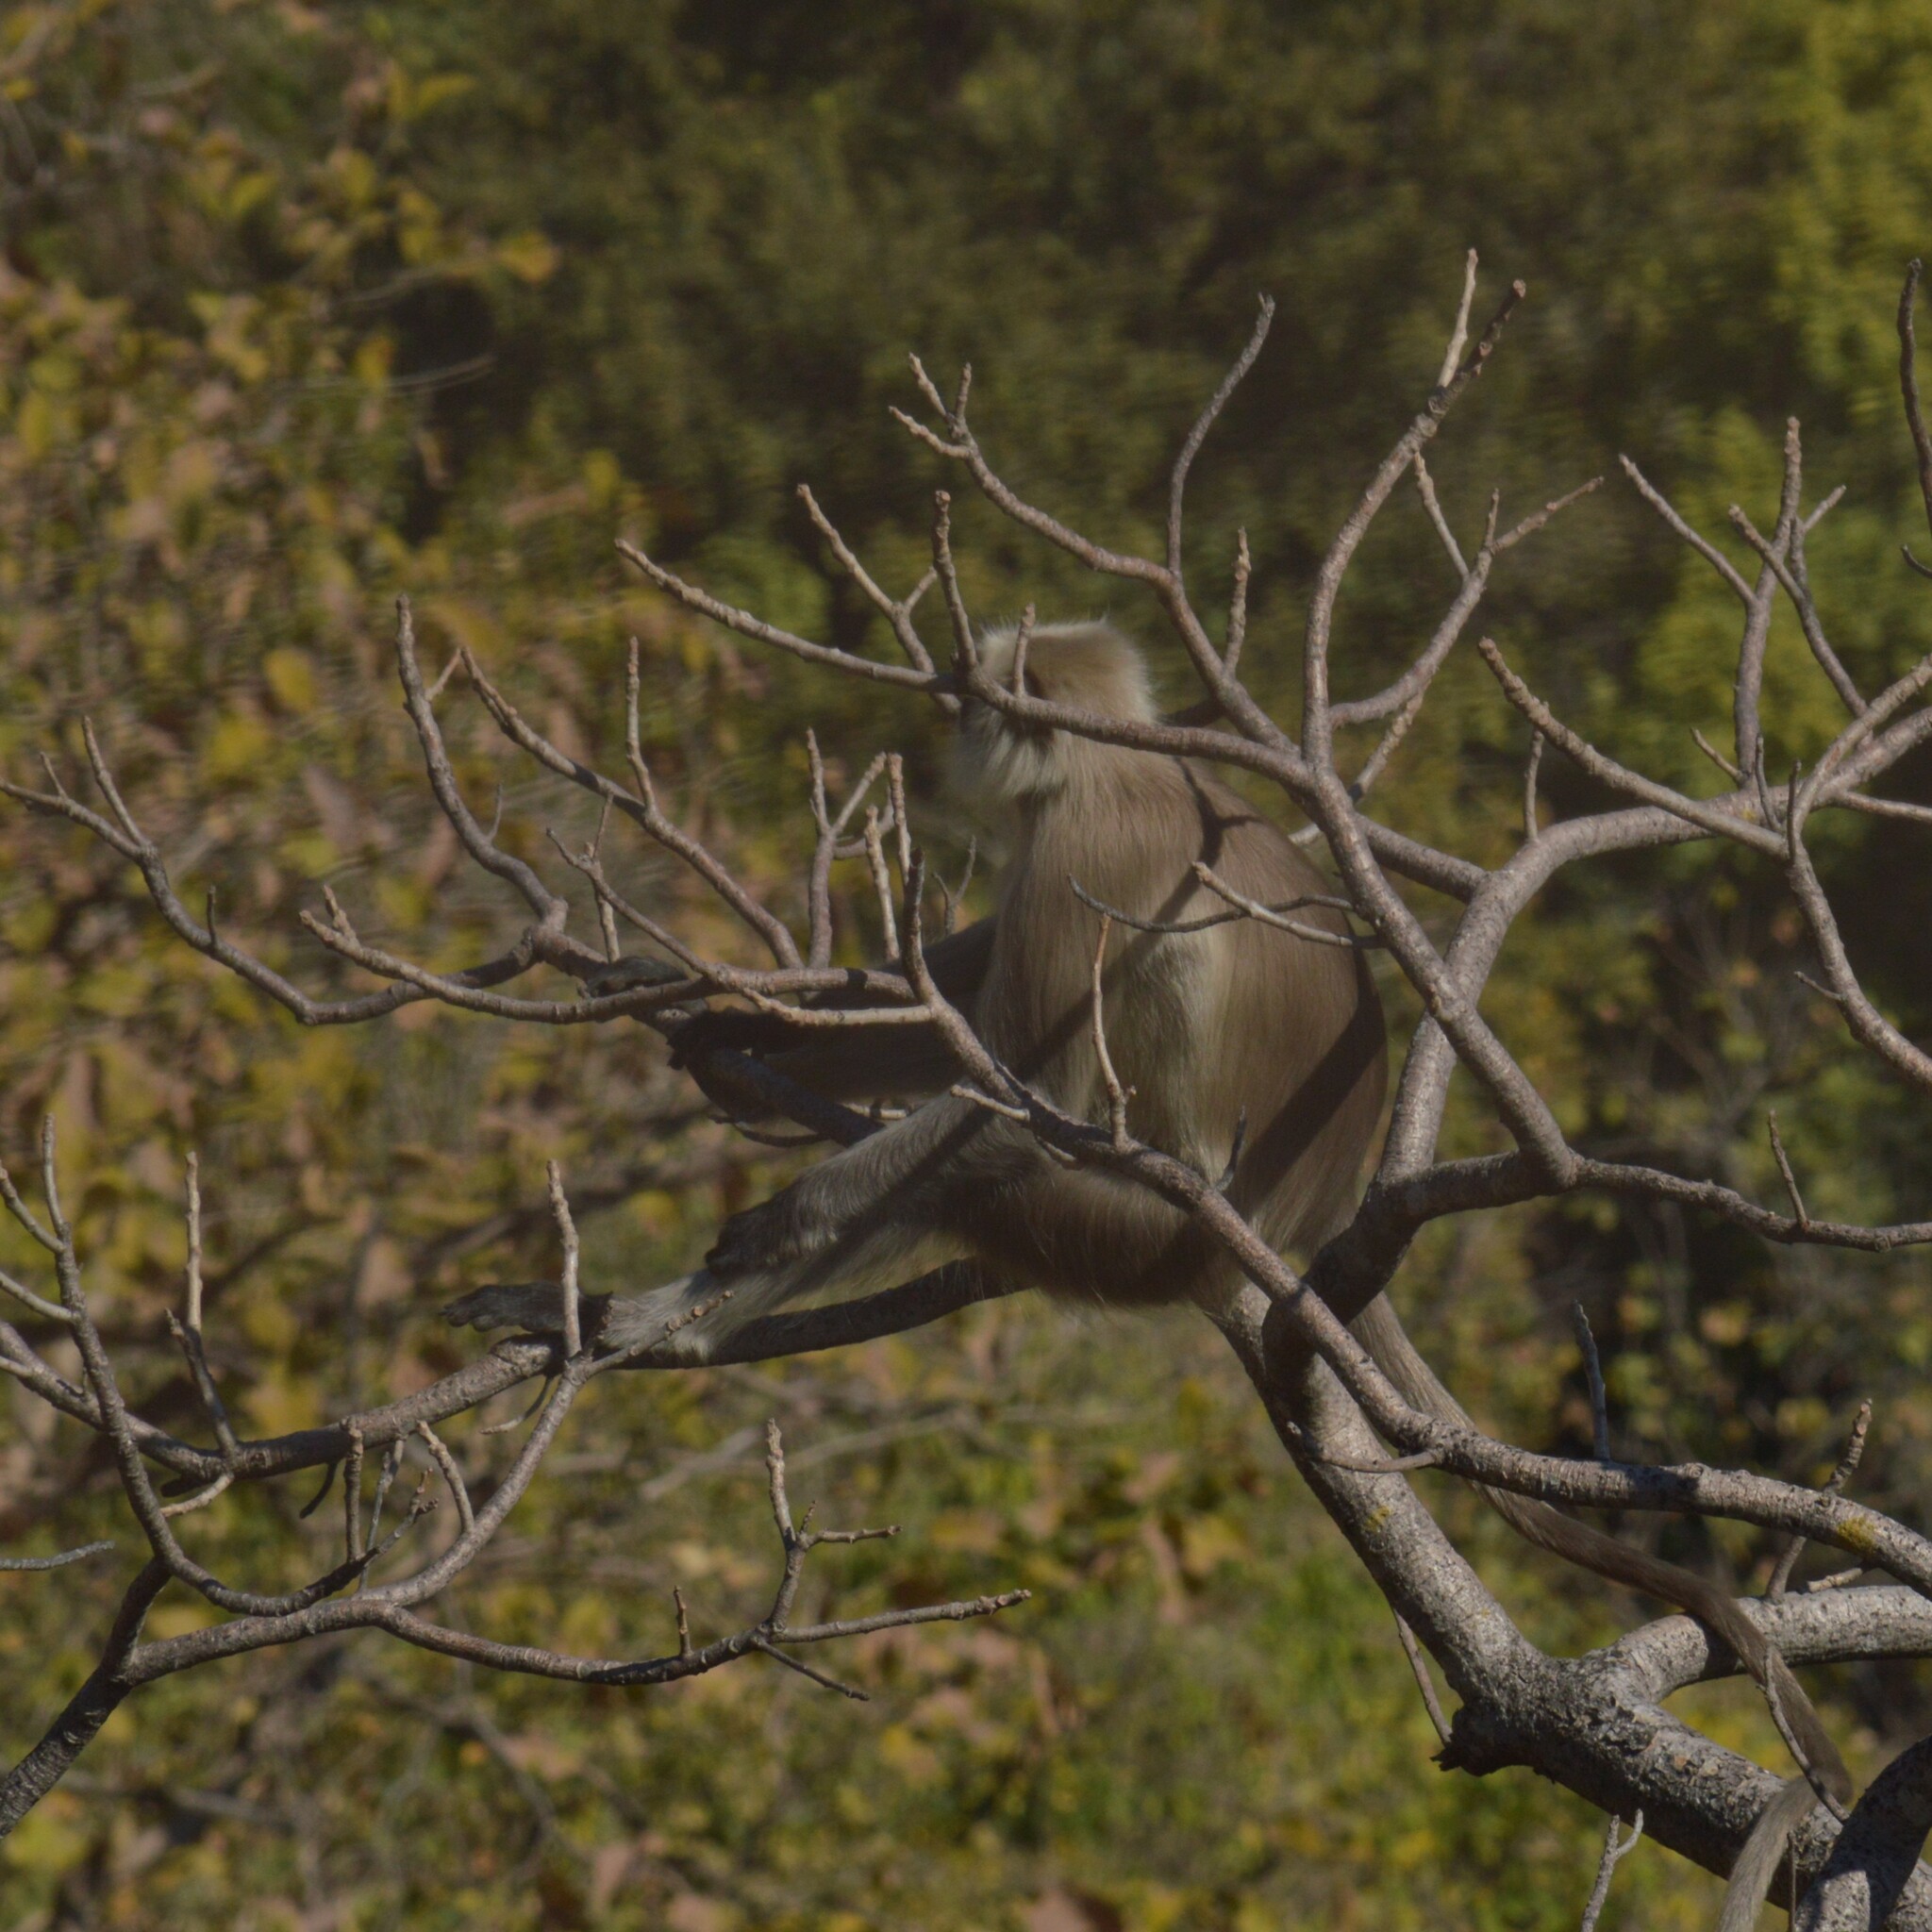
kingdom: Animalia
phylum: Chordata
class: Mammalia
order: Primates
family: Cercopithecidae
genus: Semnopithecus
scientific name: Semnopithecus entellus
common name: Northern plains gray langur
